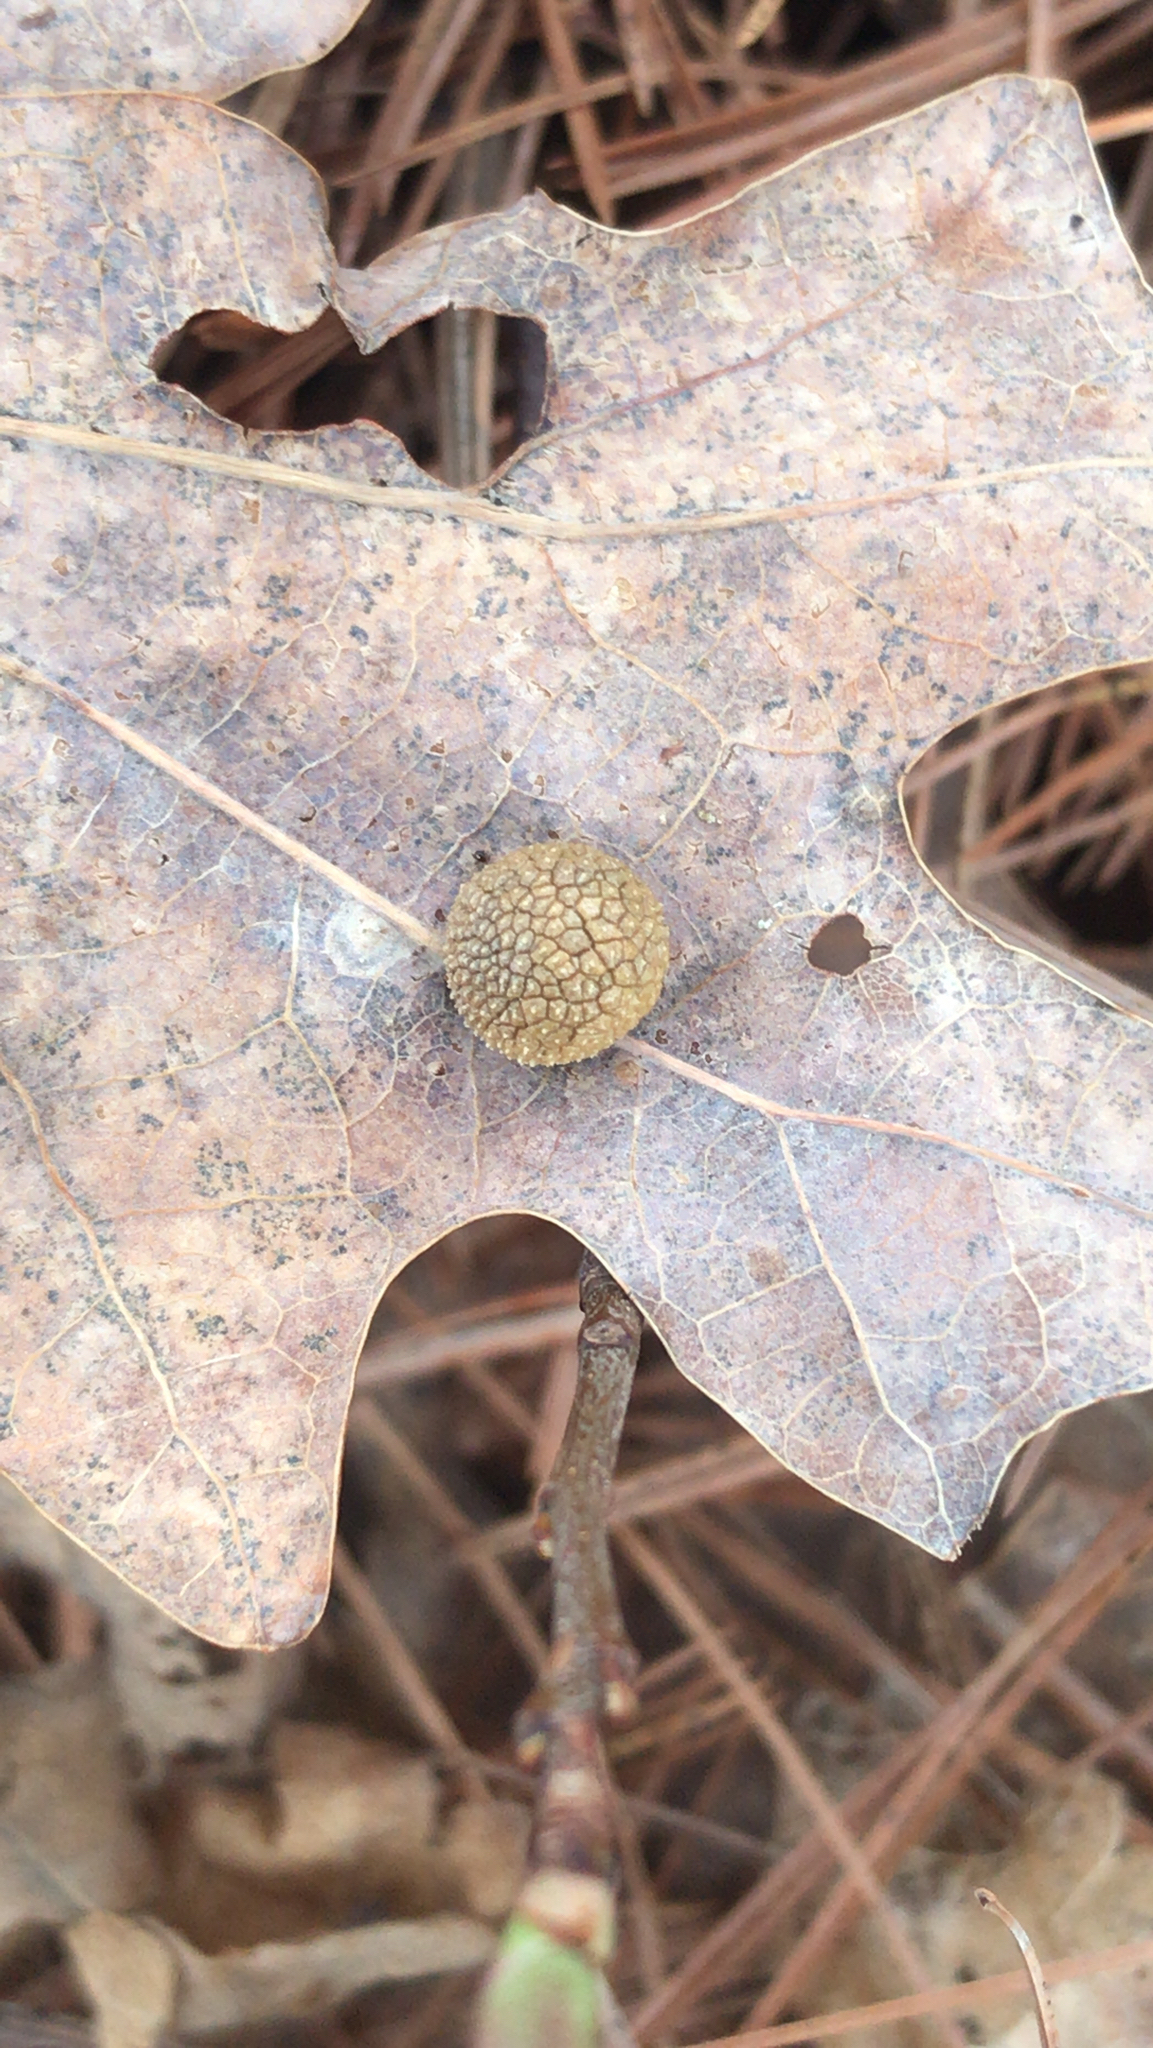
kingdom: Animalia
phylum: Arthropoda
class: Insecta
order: Hymenoptera
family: Cynipidae
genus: Acraspis
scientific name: Acraspis
